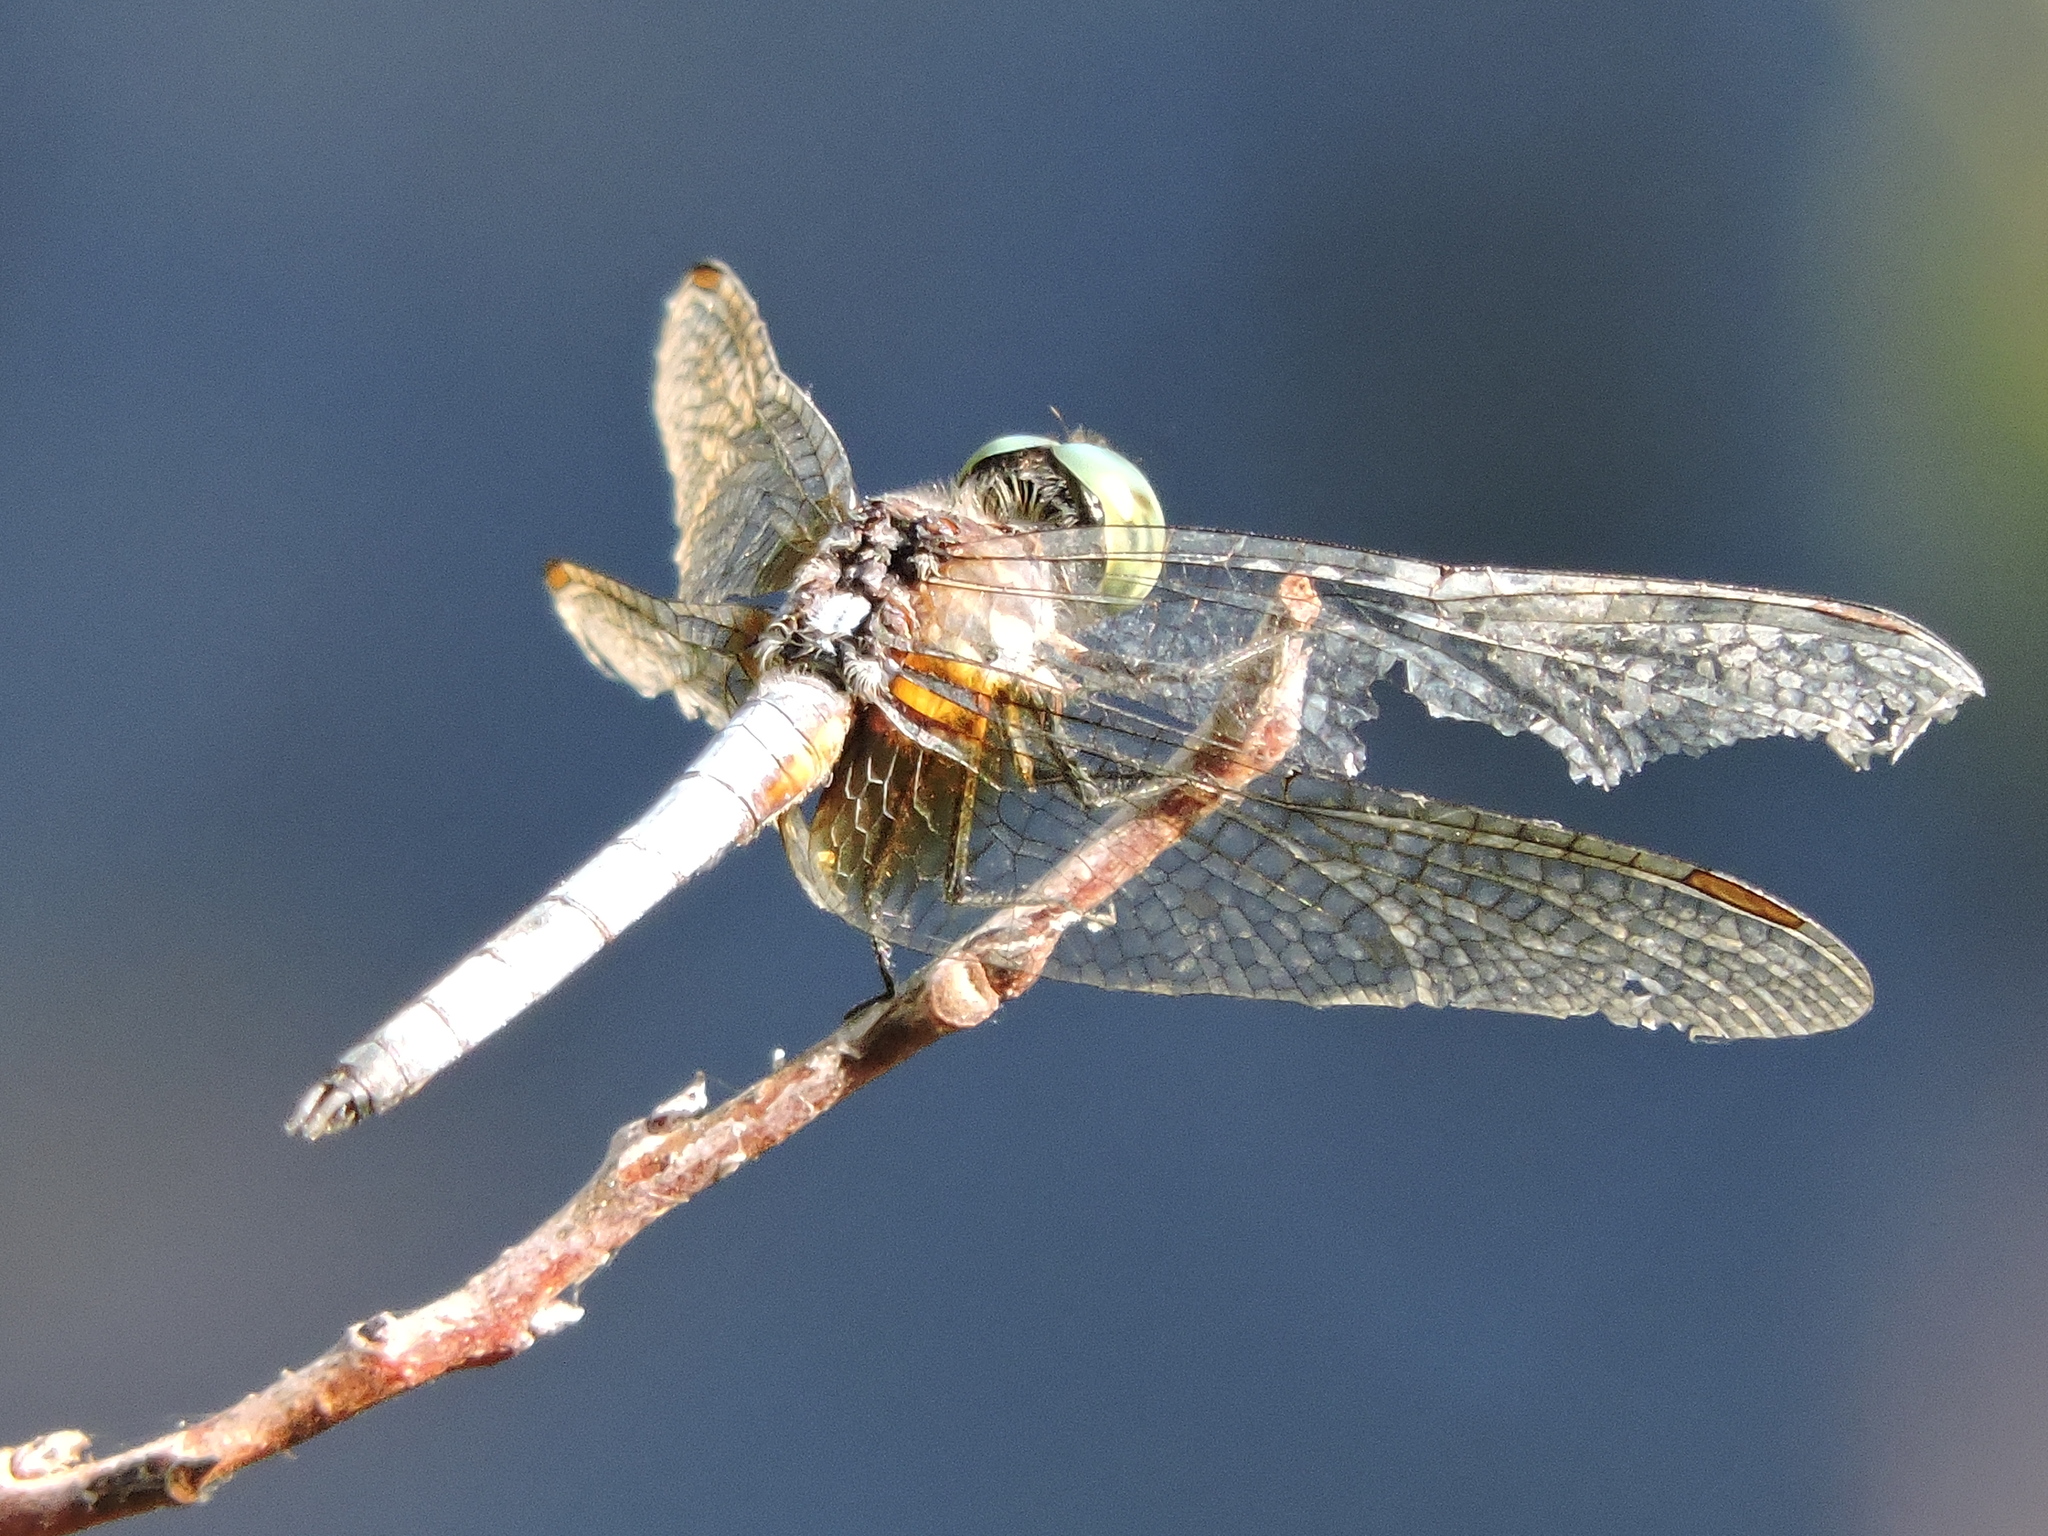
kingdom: Animalia
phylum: Arthropoda
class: Insecta
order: Odonata
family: Libellulidae
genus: Pachydiplax
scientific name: Pachydiplax longipennis
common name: Blue dasher
